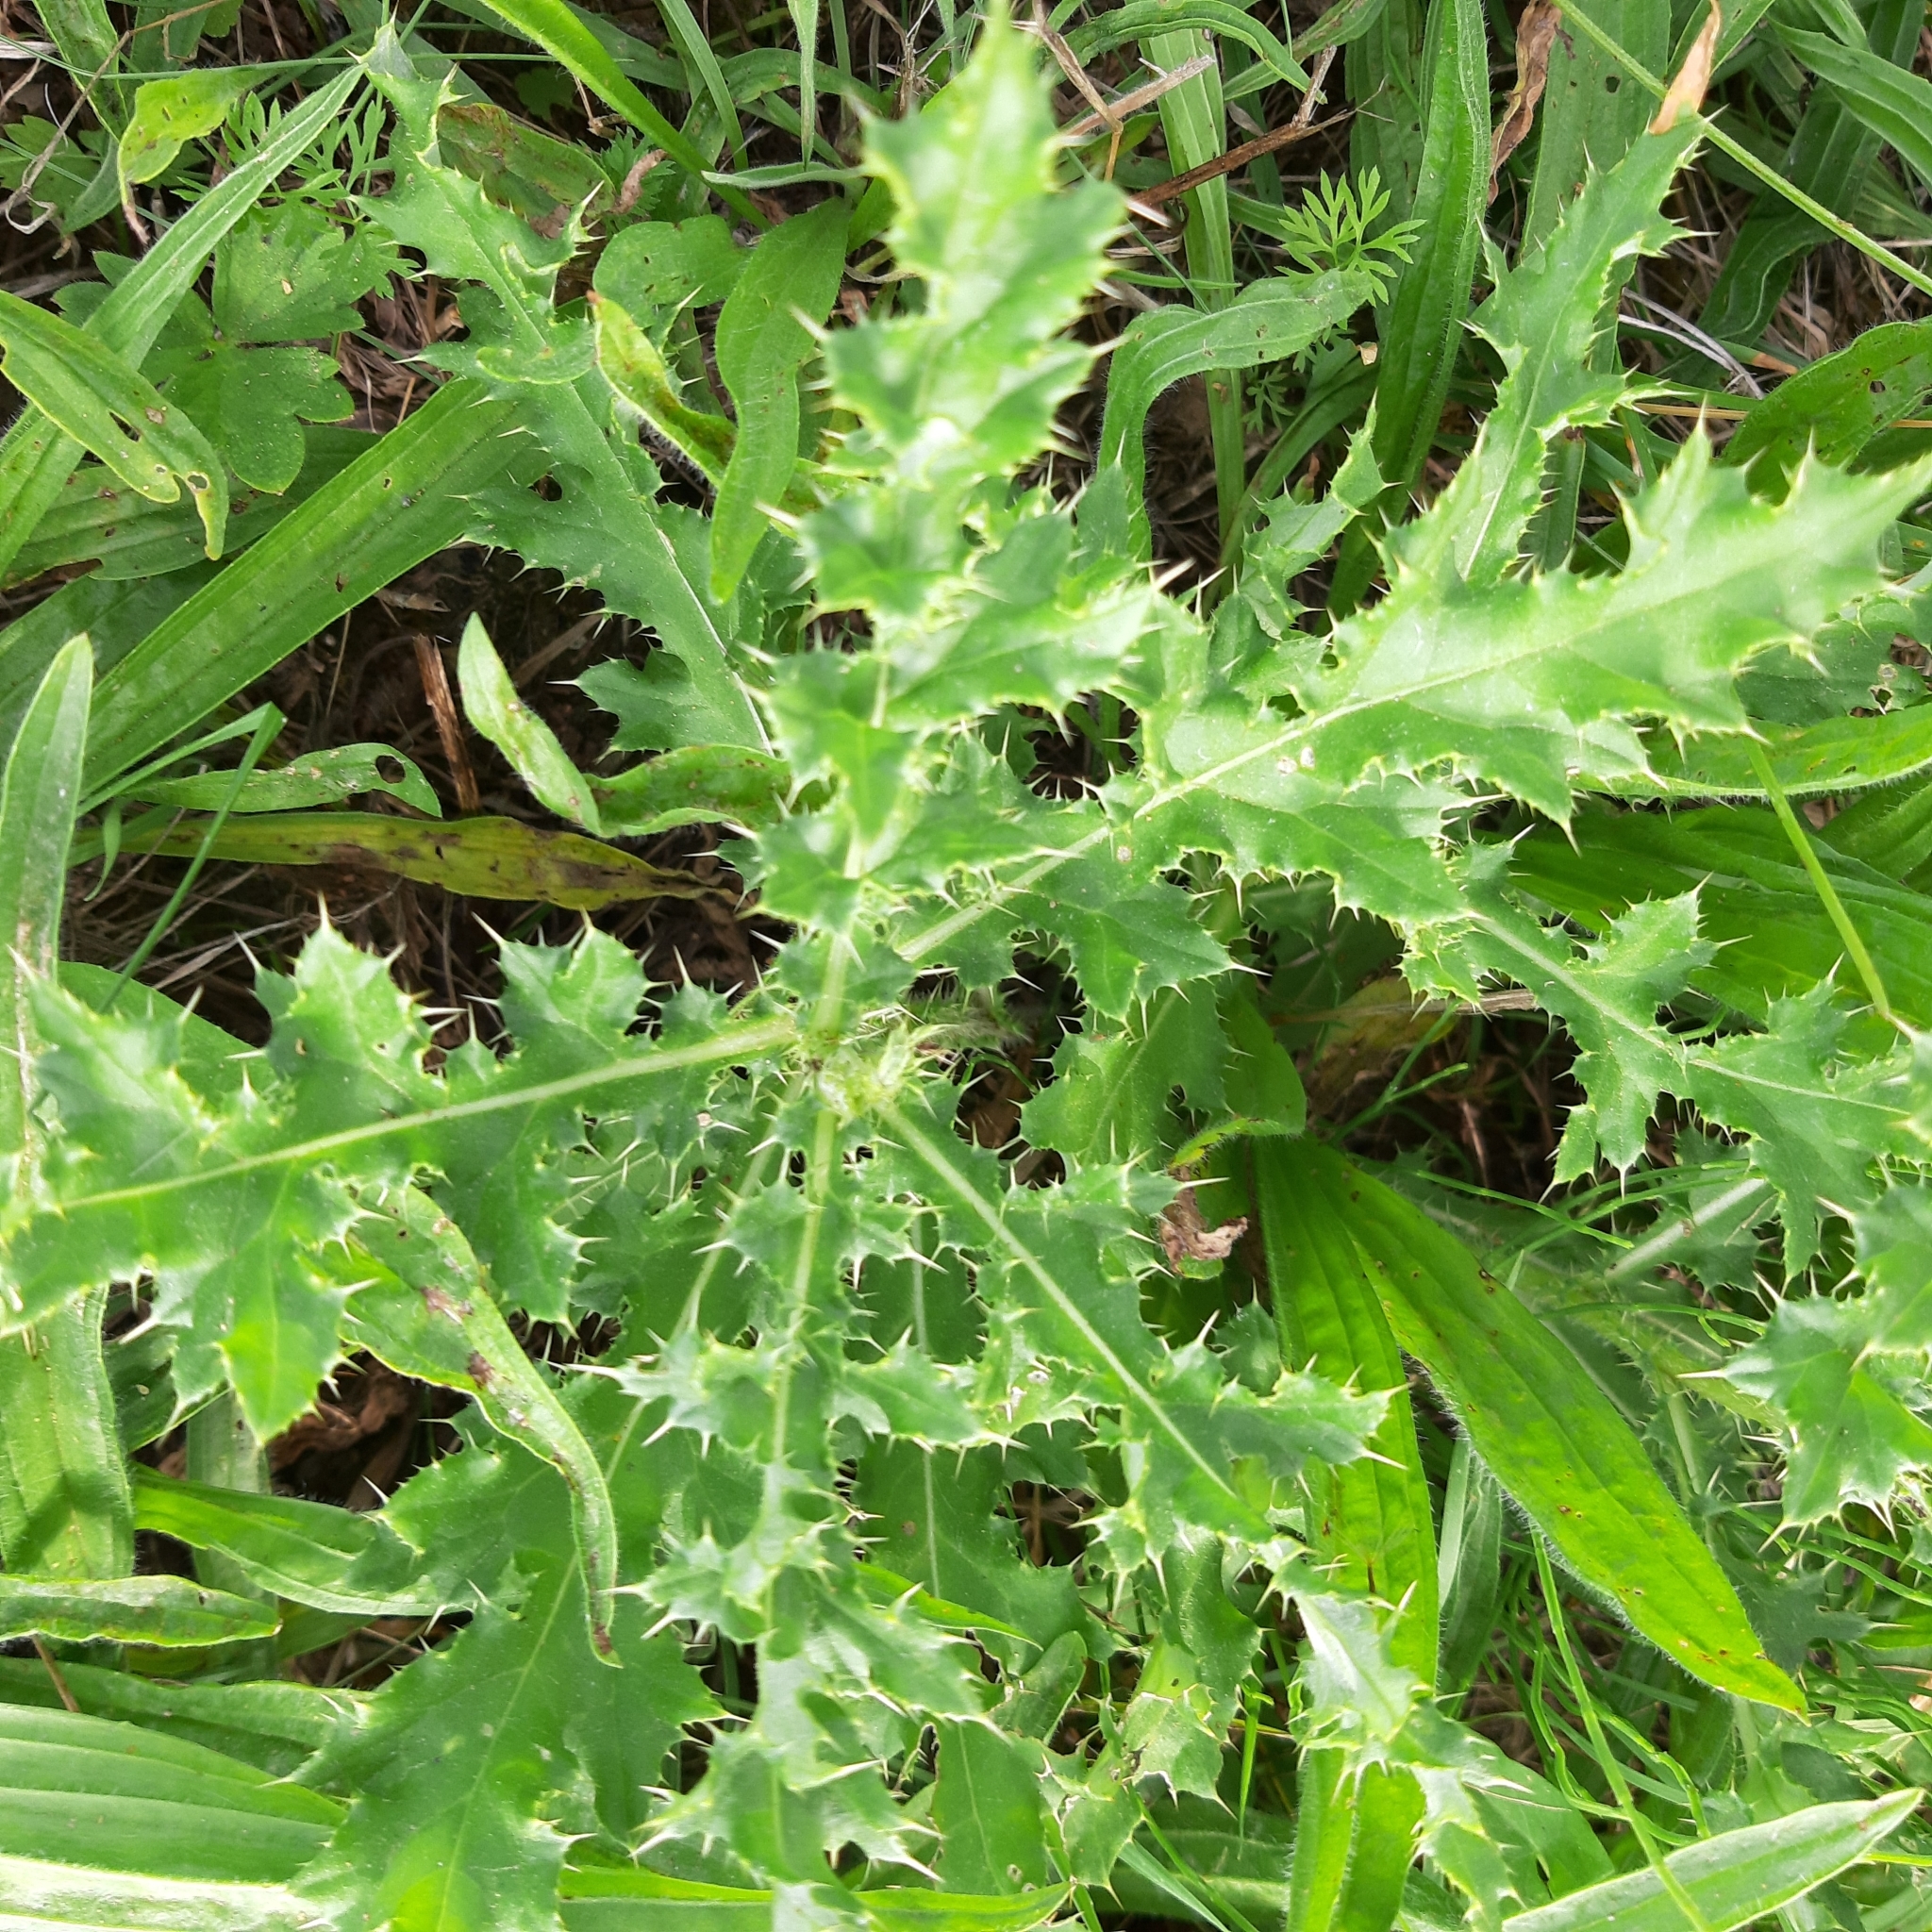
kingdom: Plantae
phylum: Tracheophyta
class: Magnoliopsida
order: Asterales
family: Asteraceae
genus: Cirsium
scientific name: Cirsium arvense
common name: Creeping thistle
